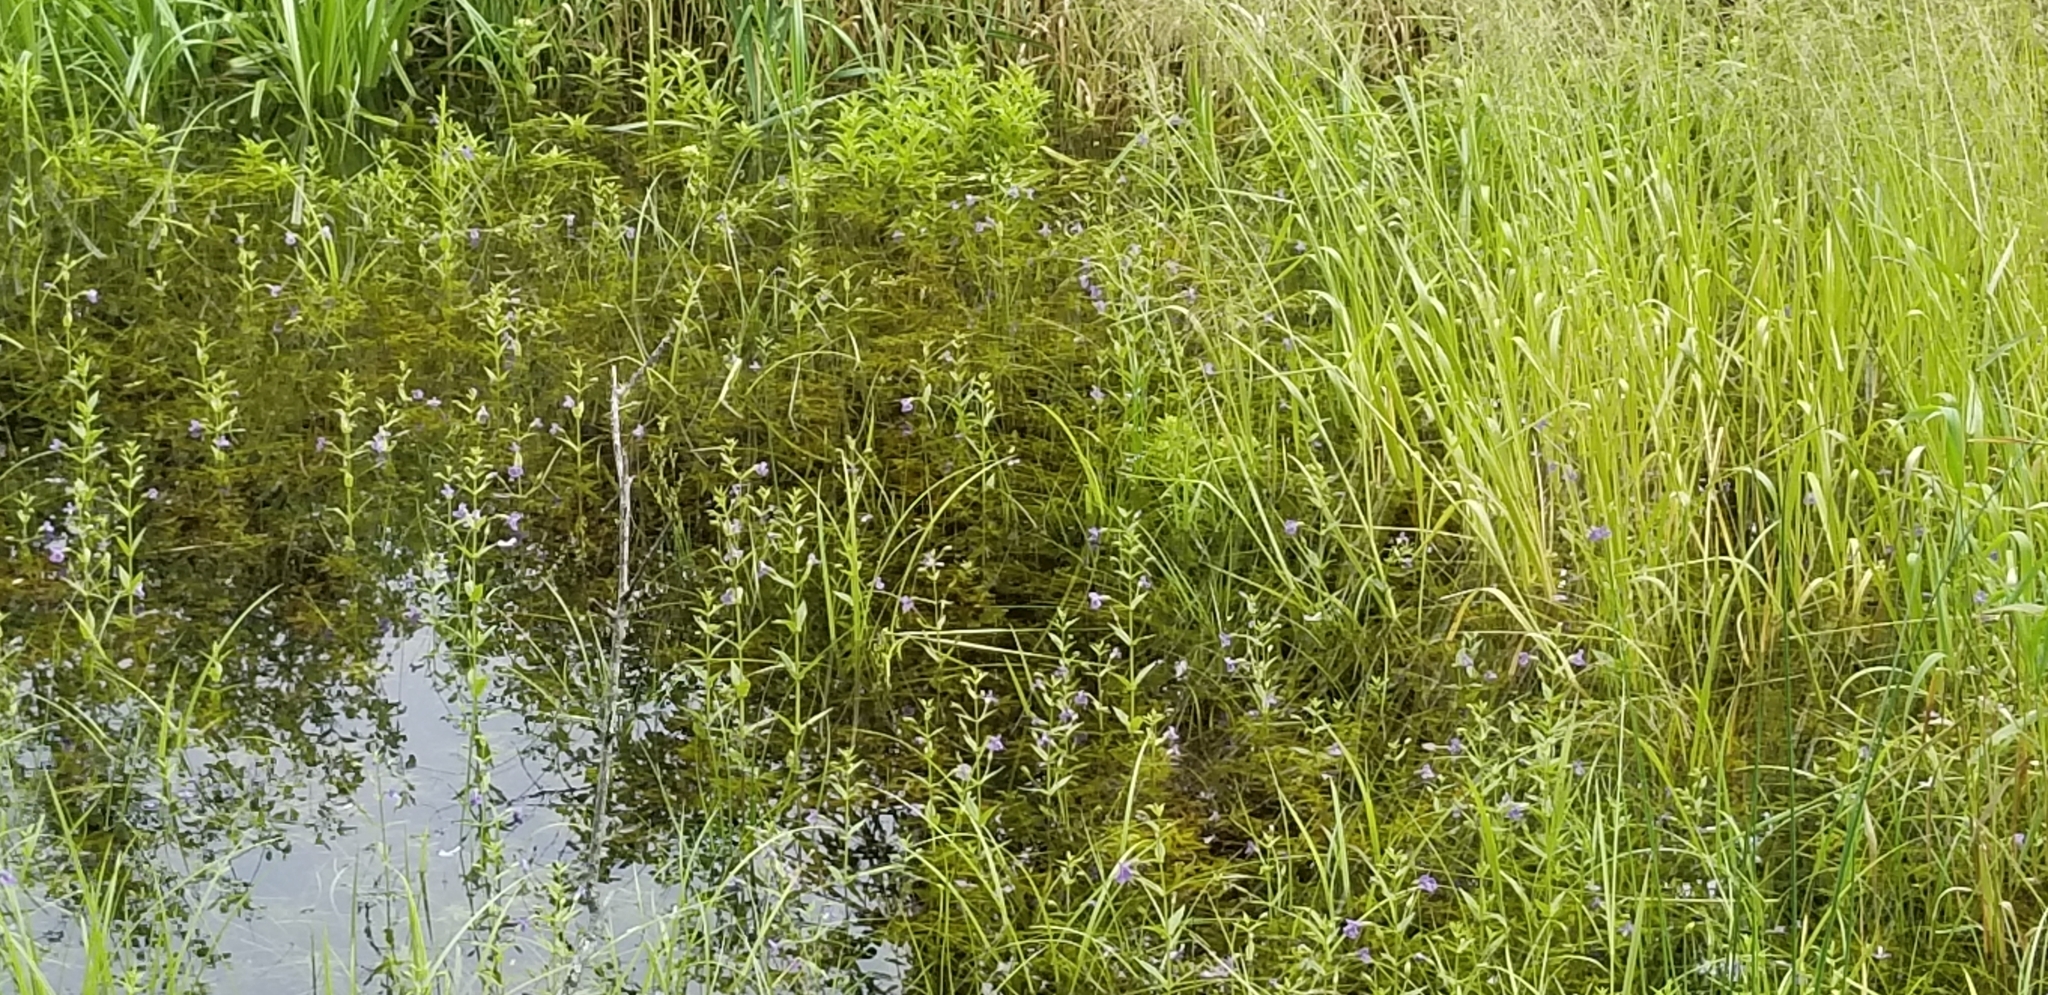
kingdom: Plantae
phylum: Tracheophyta
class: Magnoliopsida
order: Lamiales
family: Phrymaceae
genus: Mimulus
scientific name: Mimulus ringens
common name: Allegheny monkeyflower
